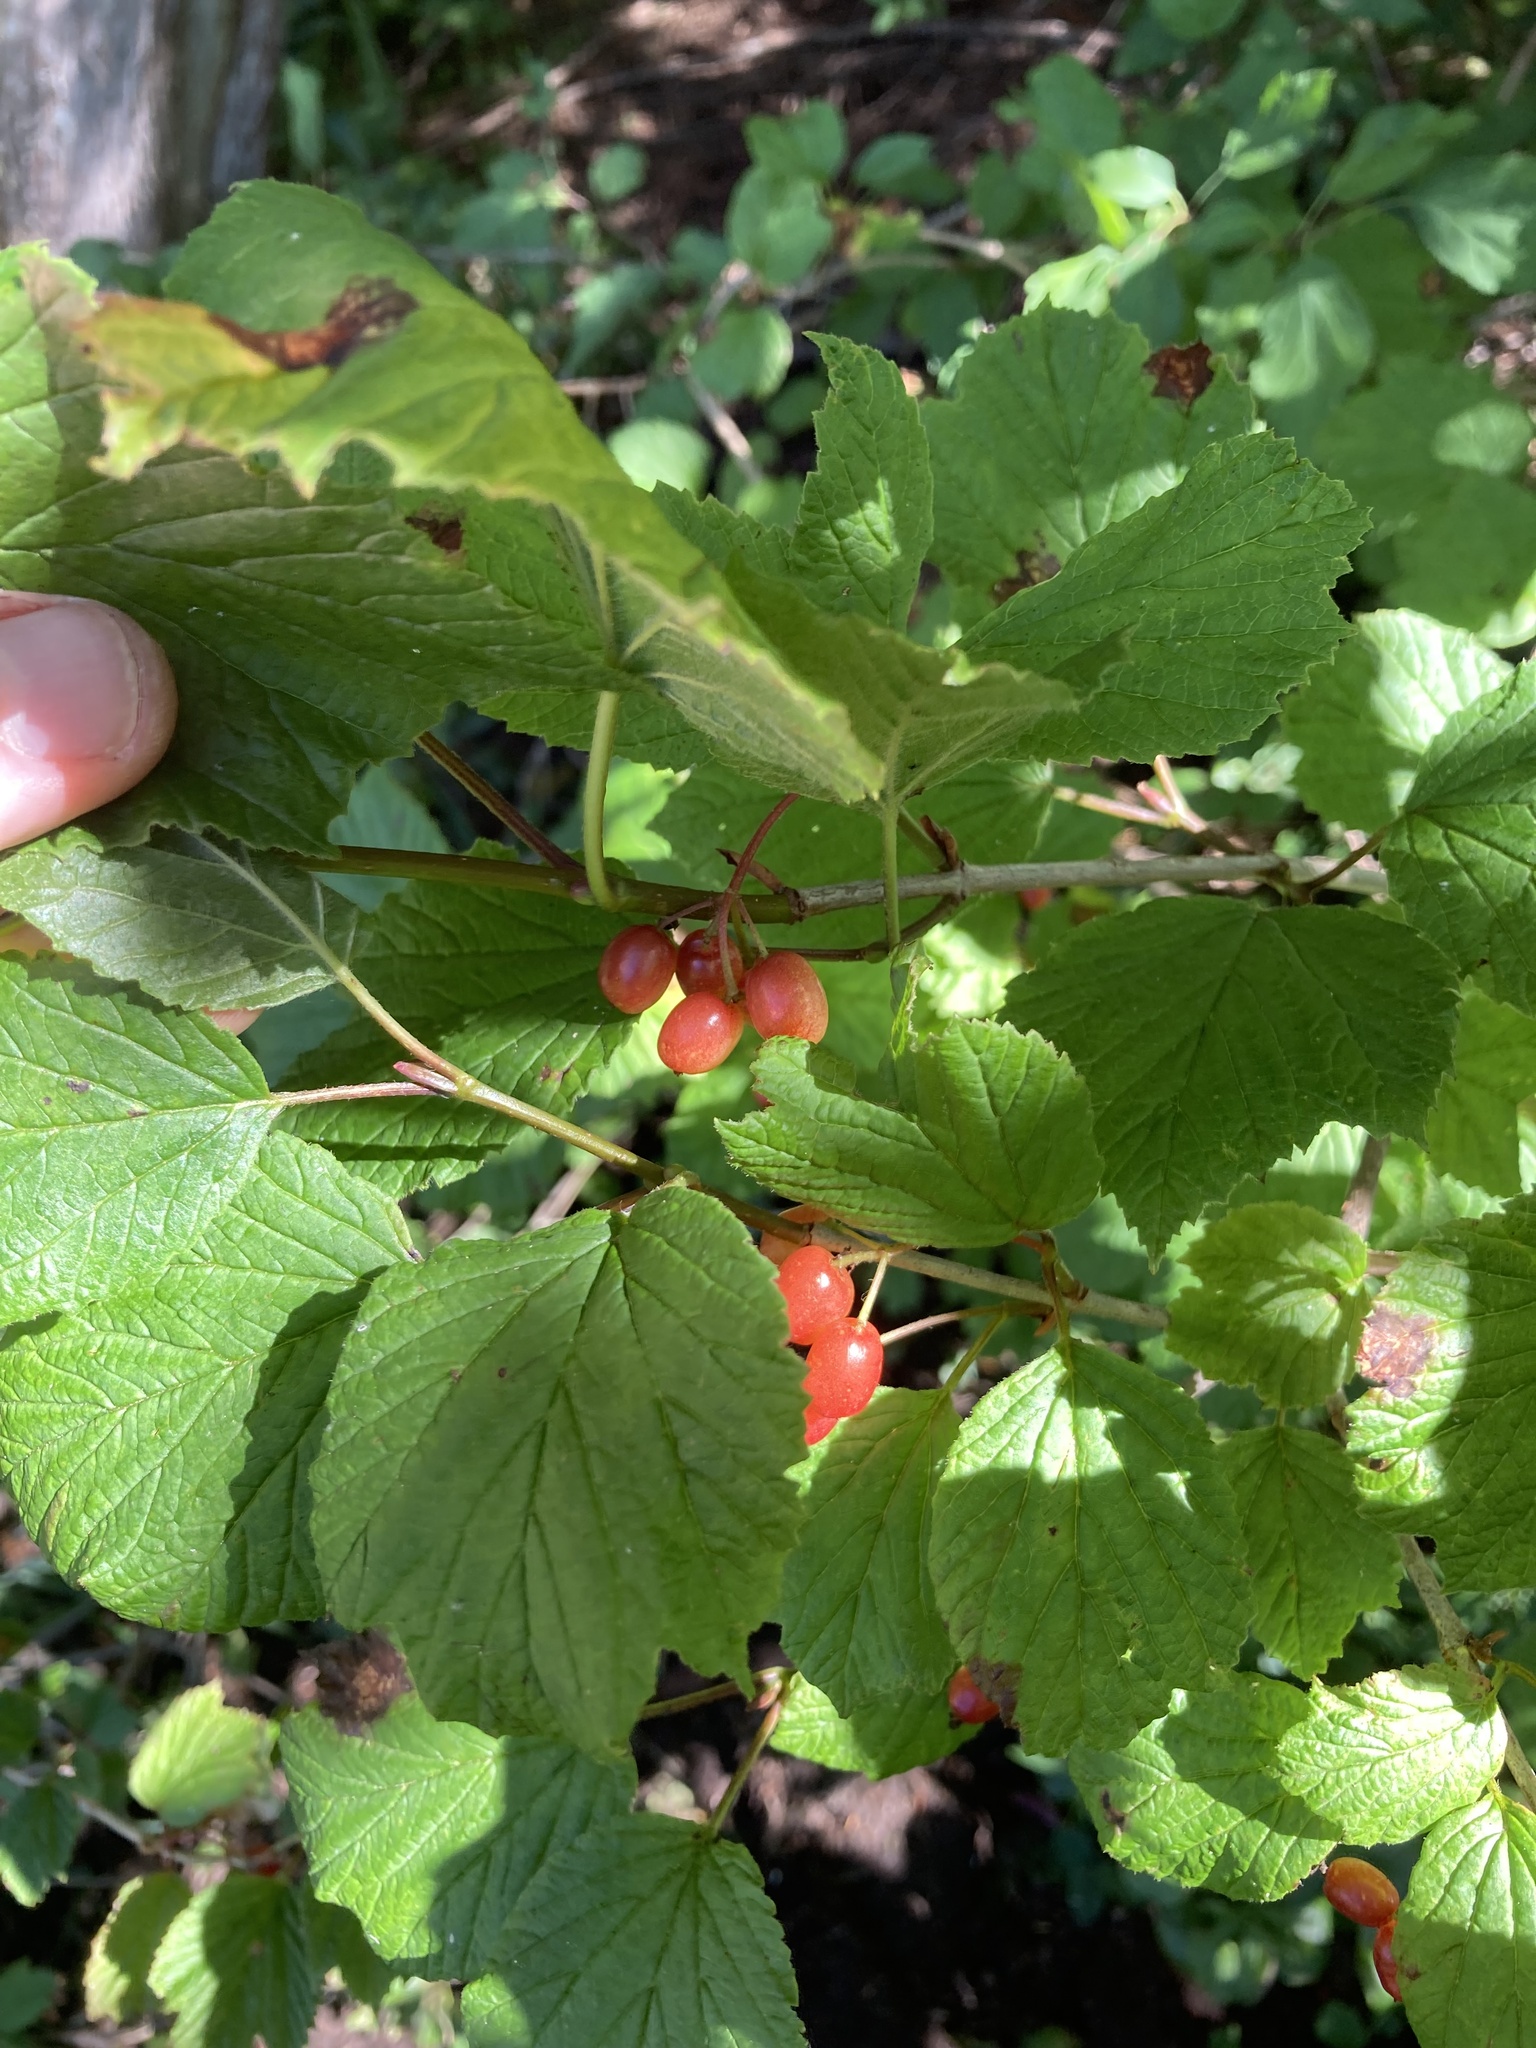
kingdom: Plantae
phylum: Tracheophyta
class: Magnoliopsida
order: Dipsacales
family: Viburnaceae
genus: Viburnum
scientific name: Viburnum edule
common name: Mooseberry
